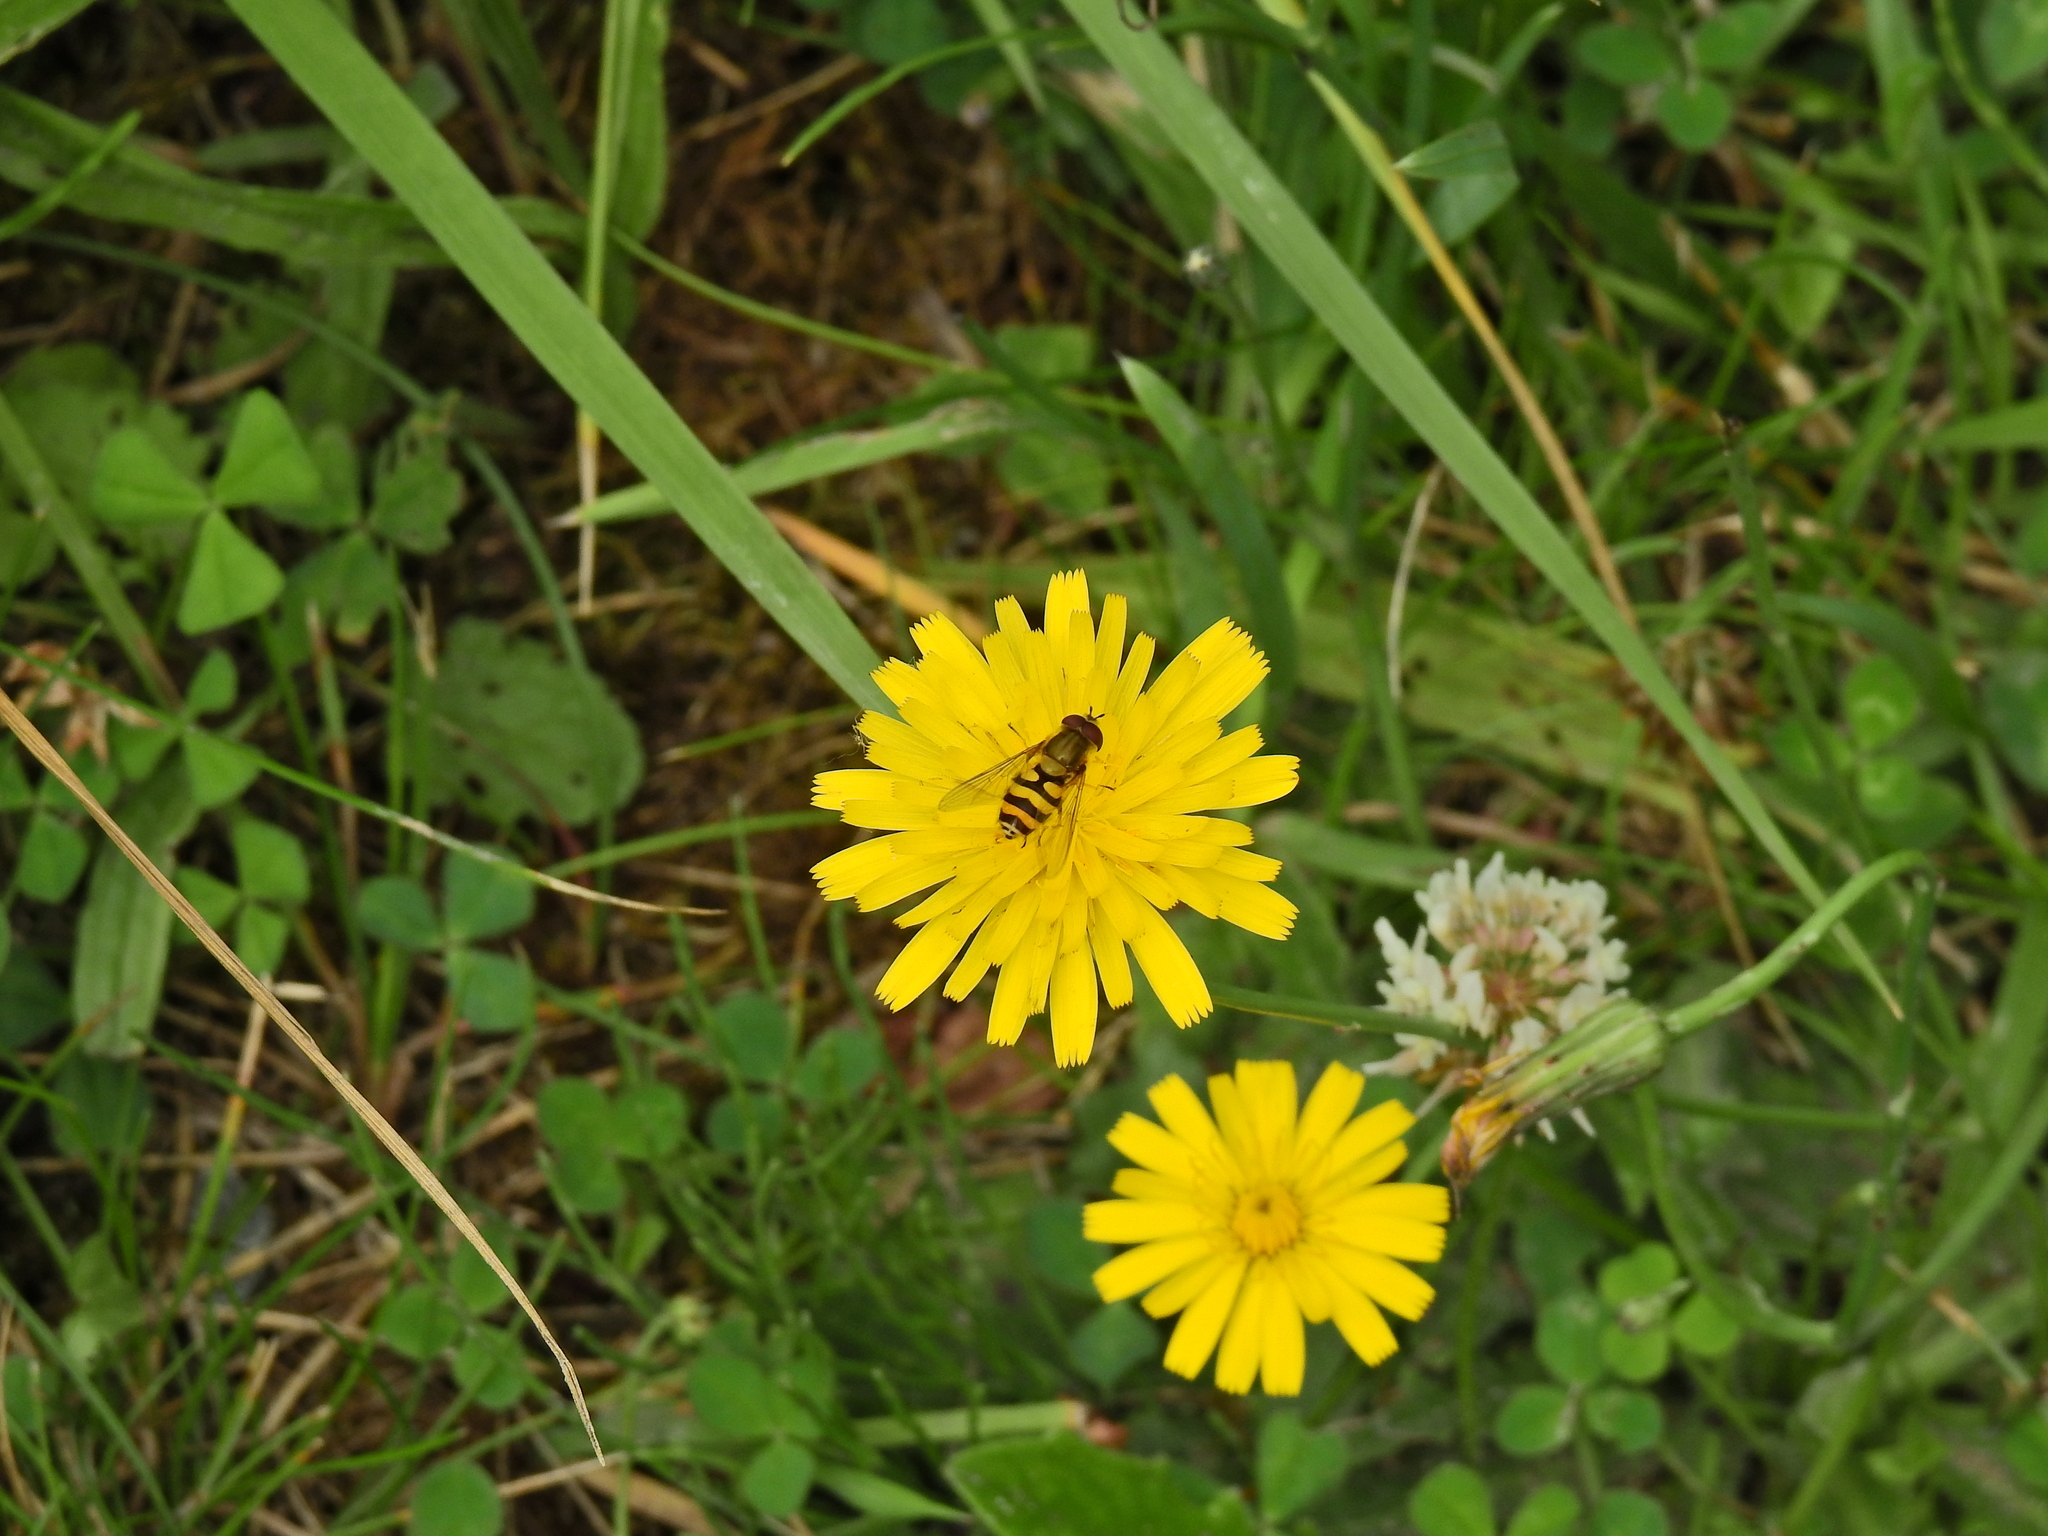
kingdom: Animalia
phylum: Arthropoda
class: Insecta
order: Diptera
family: Syrphidae
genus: Syrphus
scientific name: Syrphus
